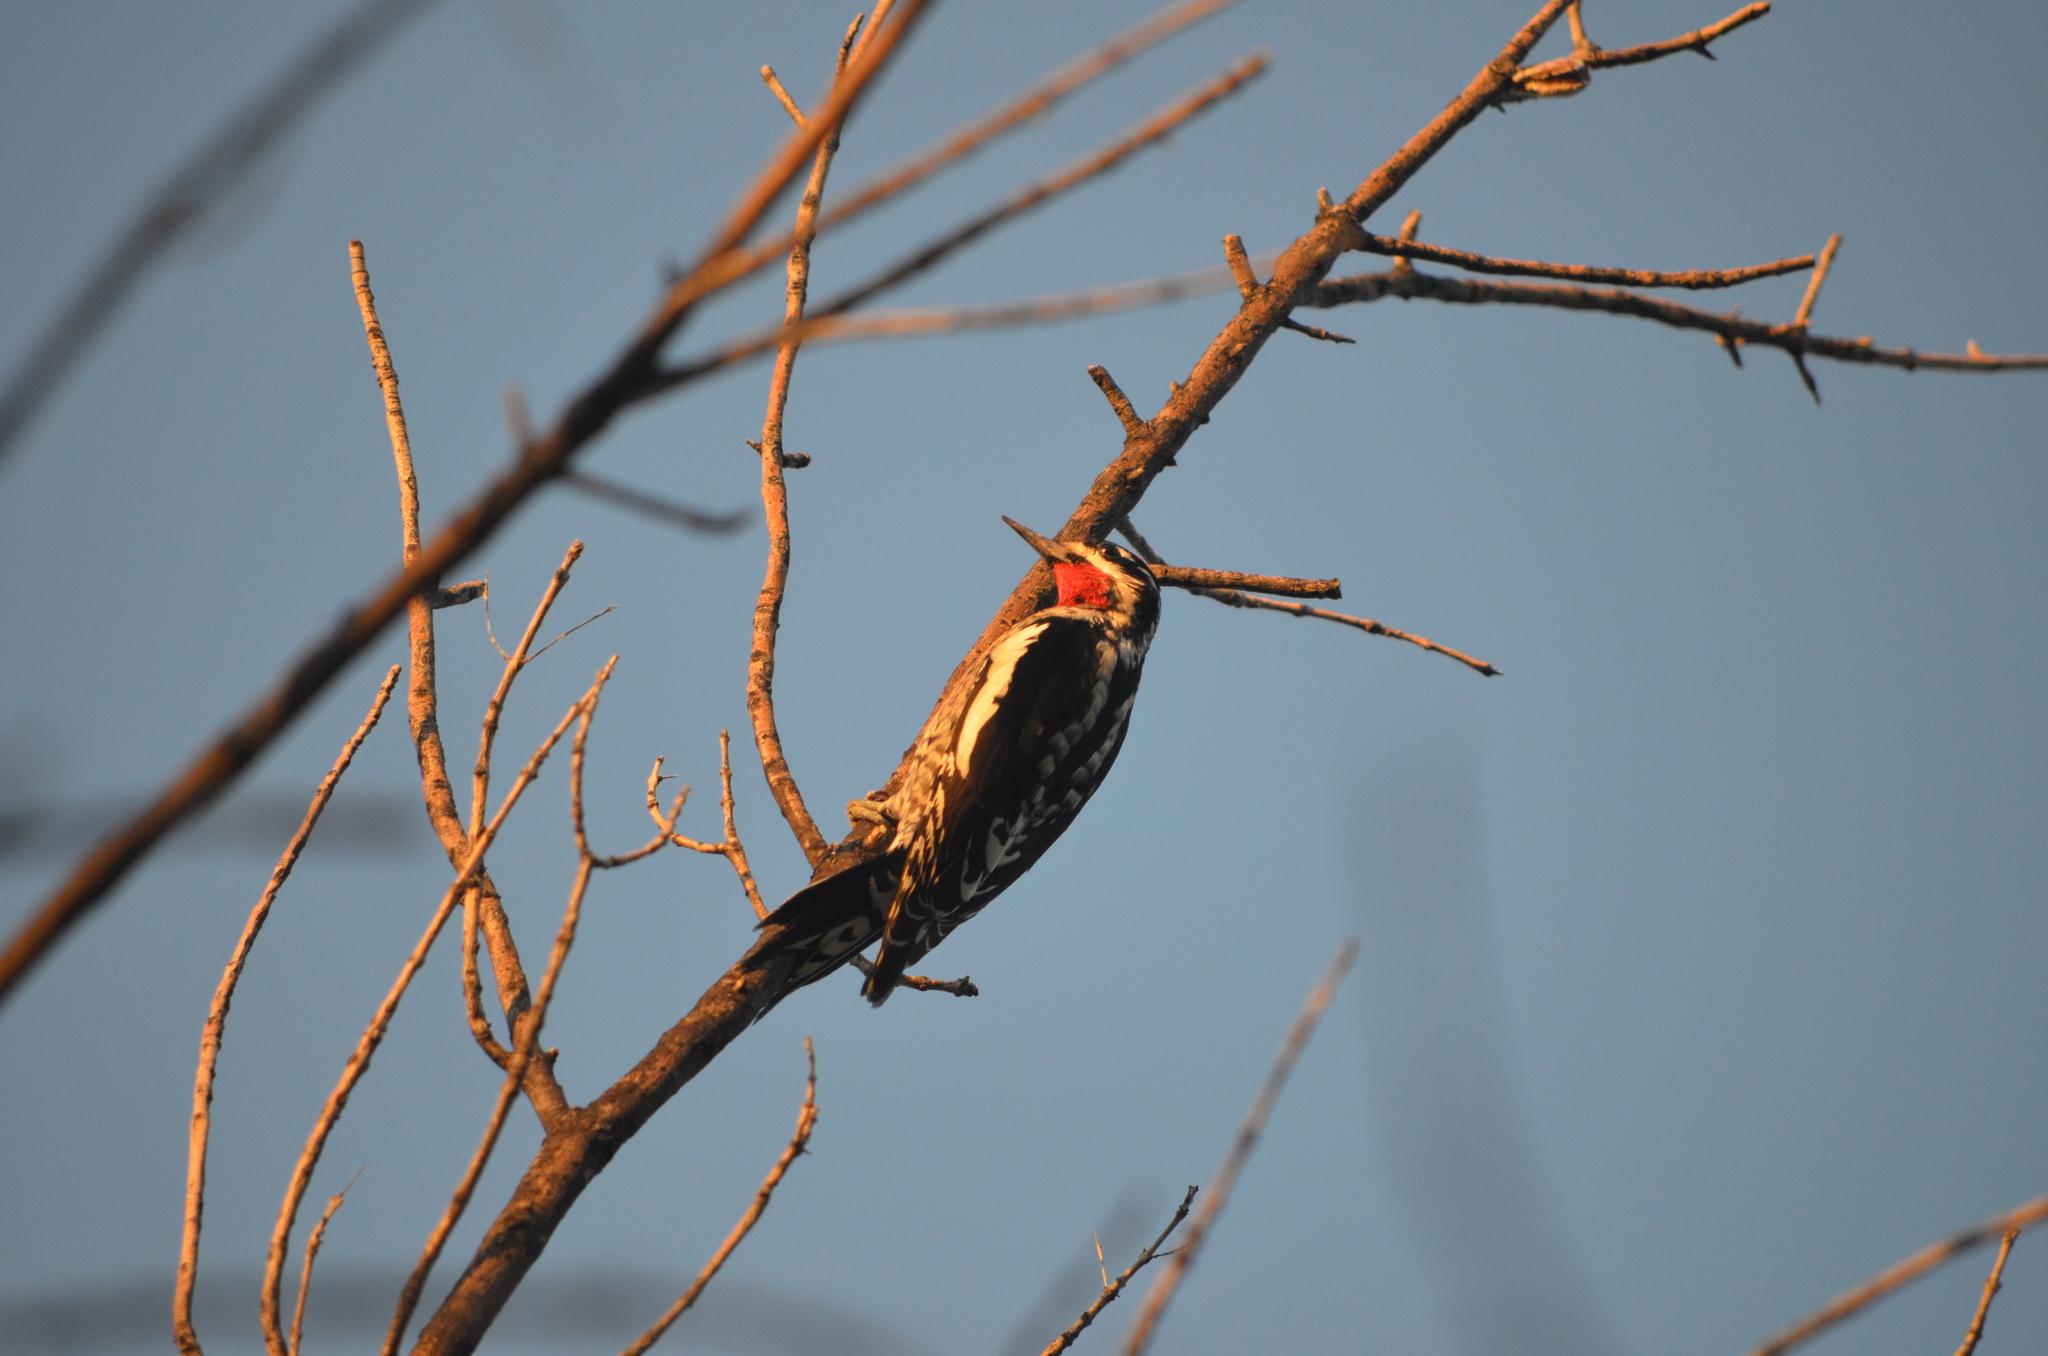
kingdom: Animalia
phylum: Chordata
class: Aves
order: Piciformes
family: Picidae
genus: Sphyrapicus
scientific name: Sphyrapicus varius
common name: Yellow-bellied sapsucker
